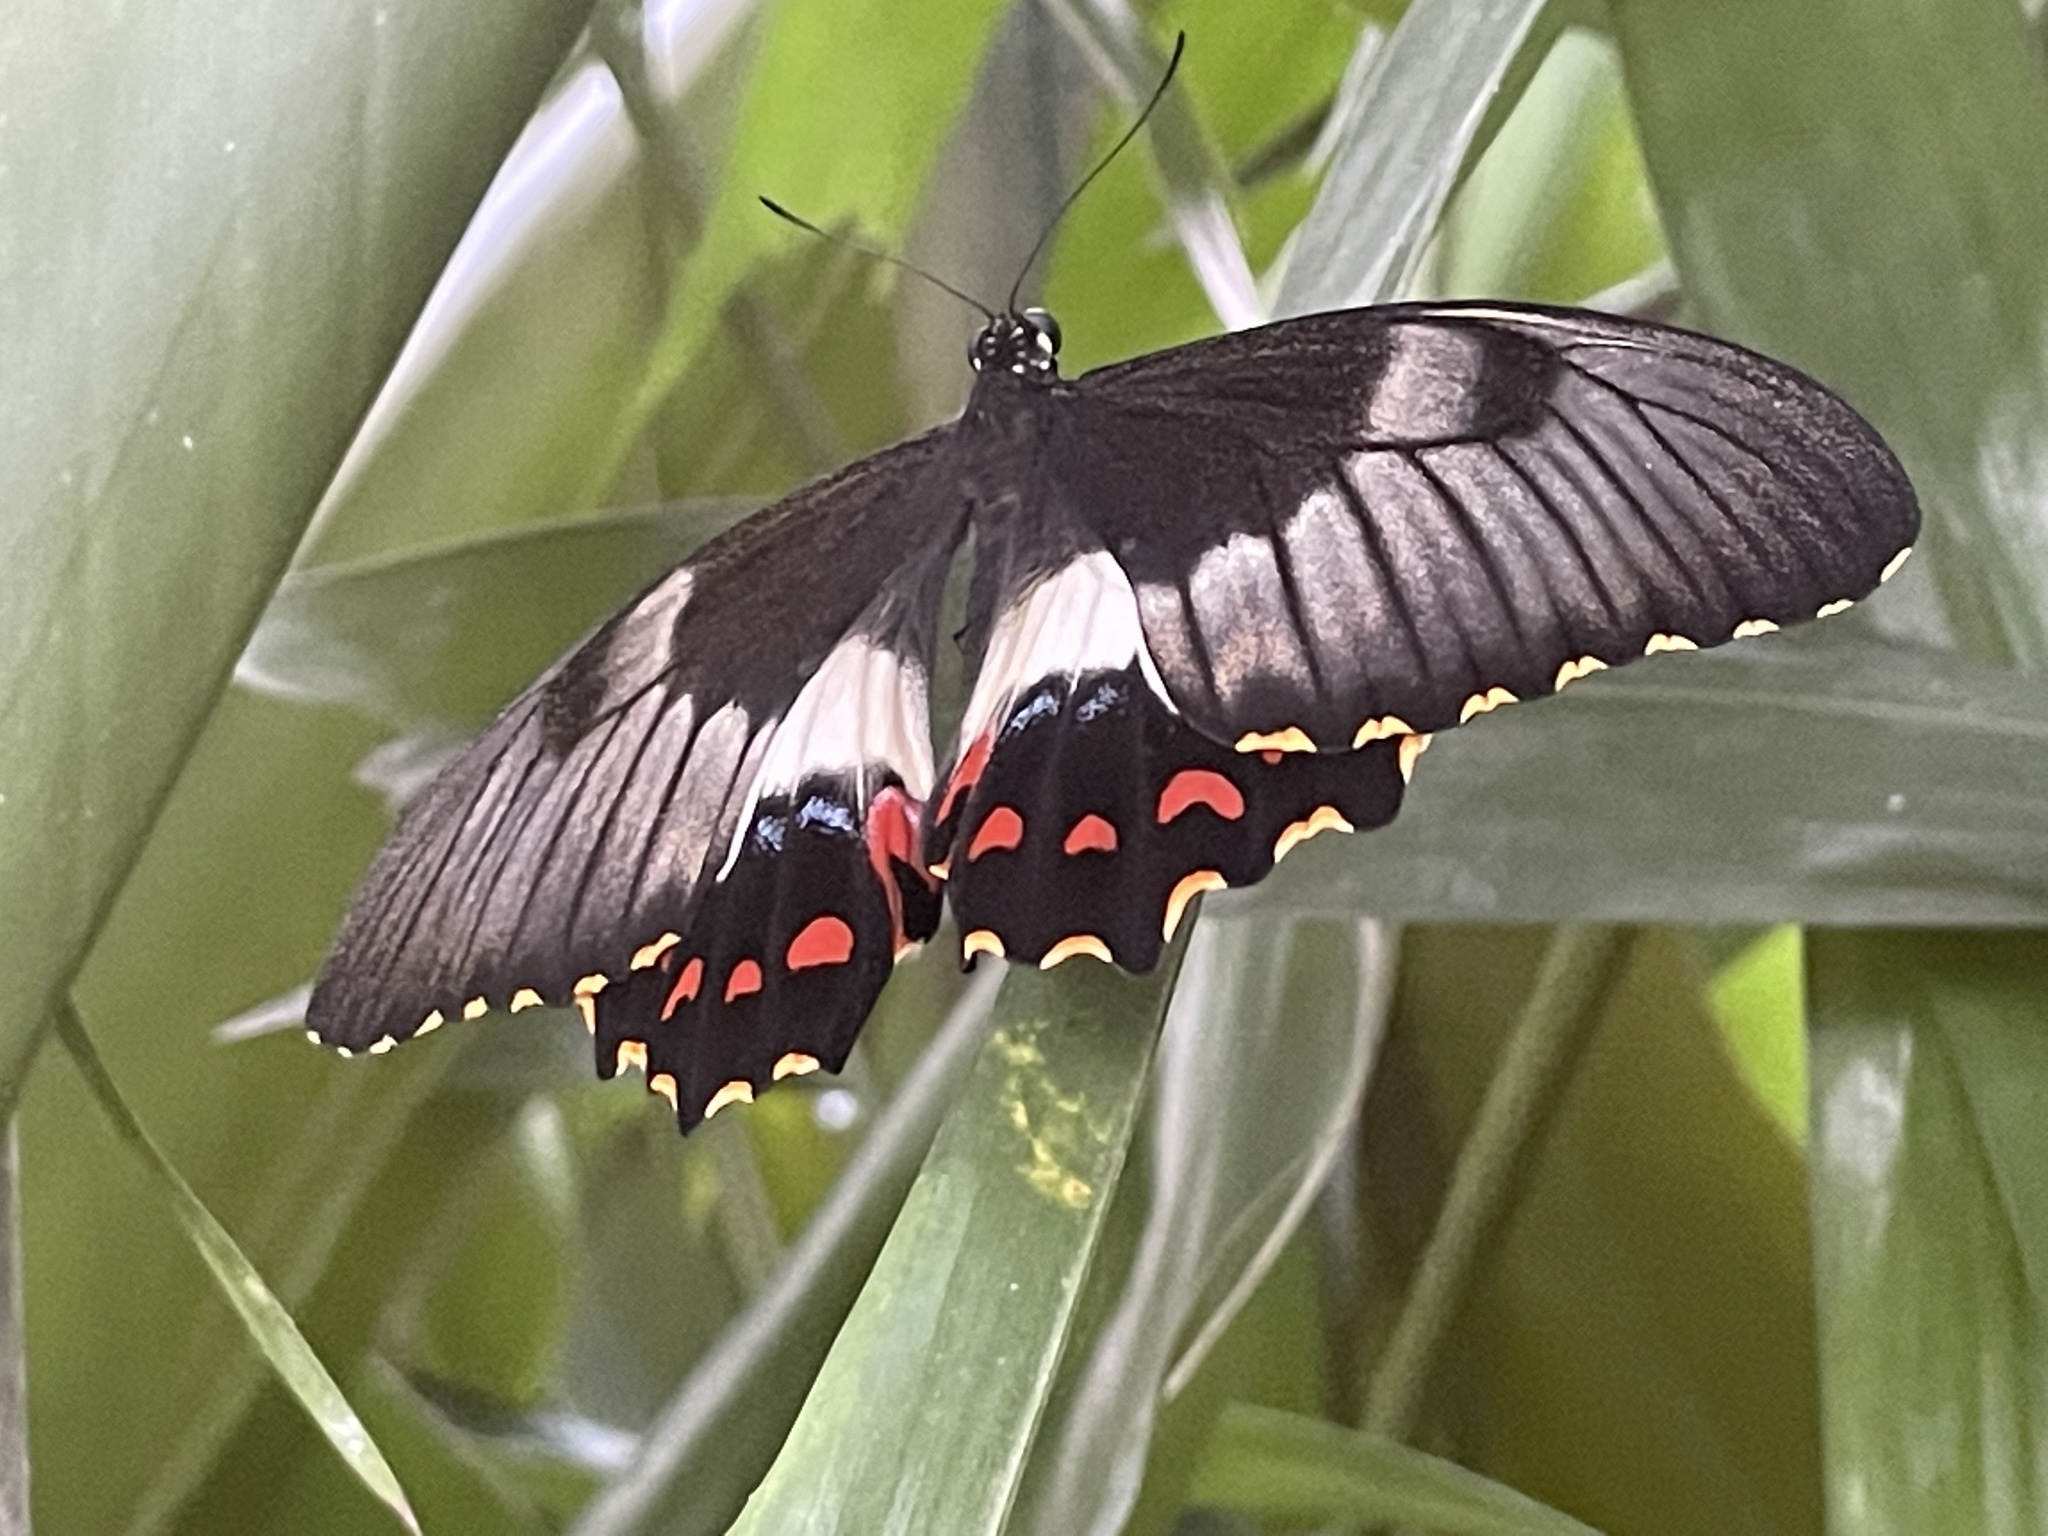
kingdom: Animalia
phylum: Arthropoda
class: Insecta
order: Lepidoptera
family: Papilionidae
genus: Papilio
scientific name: Papilio aegeus
